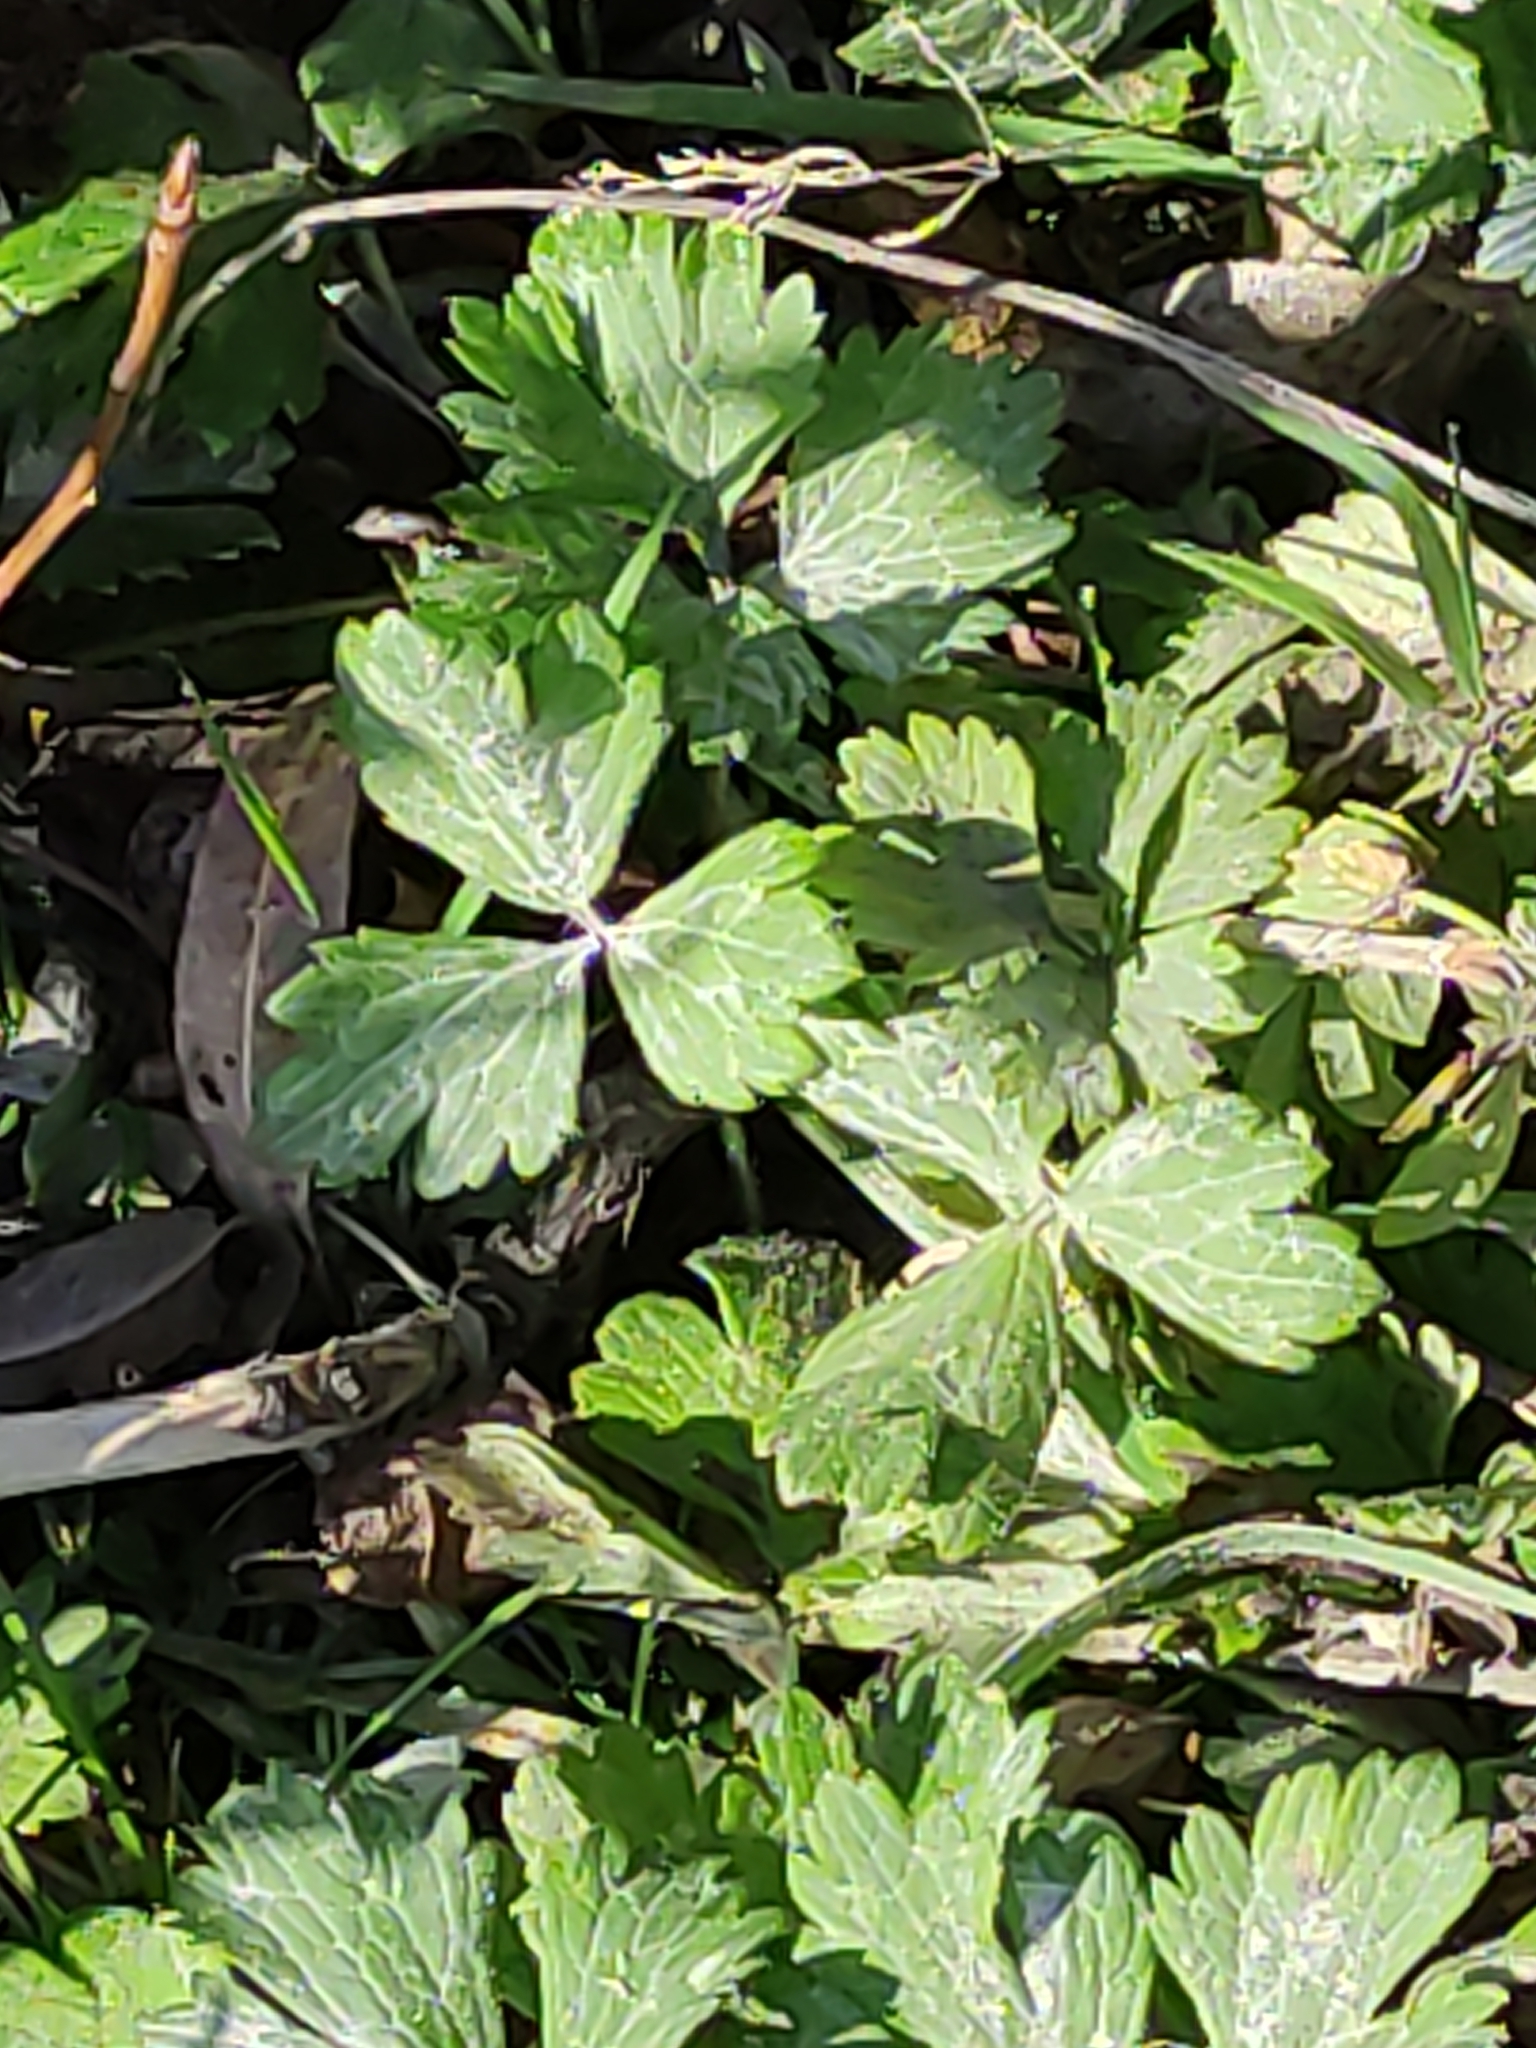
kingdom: Plantae
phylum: Tracheophyta
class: Magnoliopsida
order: Ranunculales
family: Ranunculaceae
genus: Ranunculus
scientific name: Ranunculus repens
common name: Creeping buttercup
